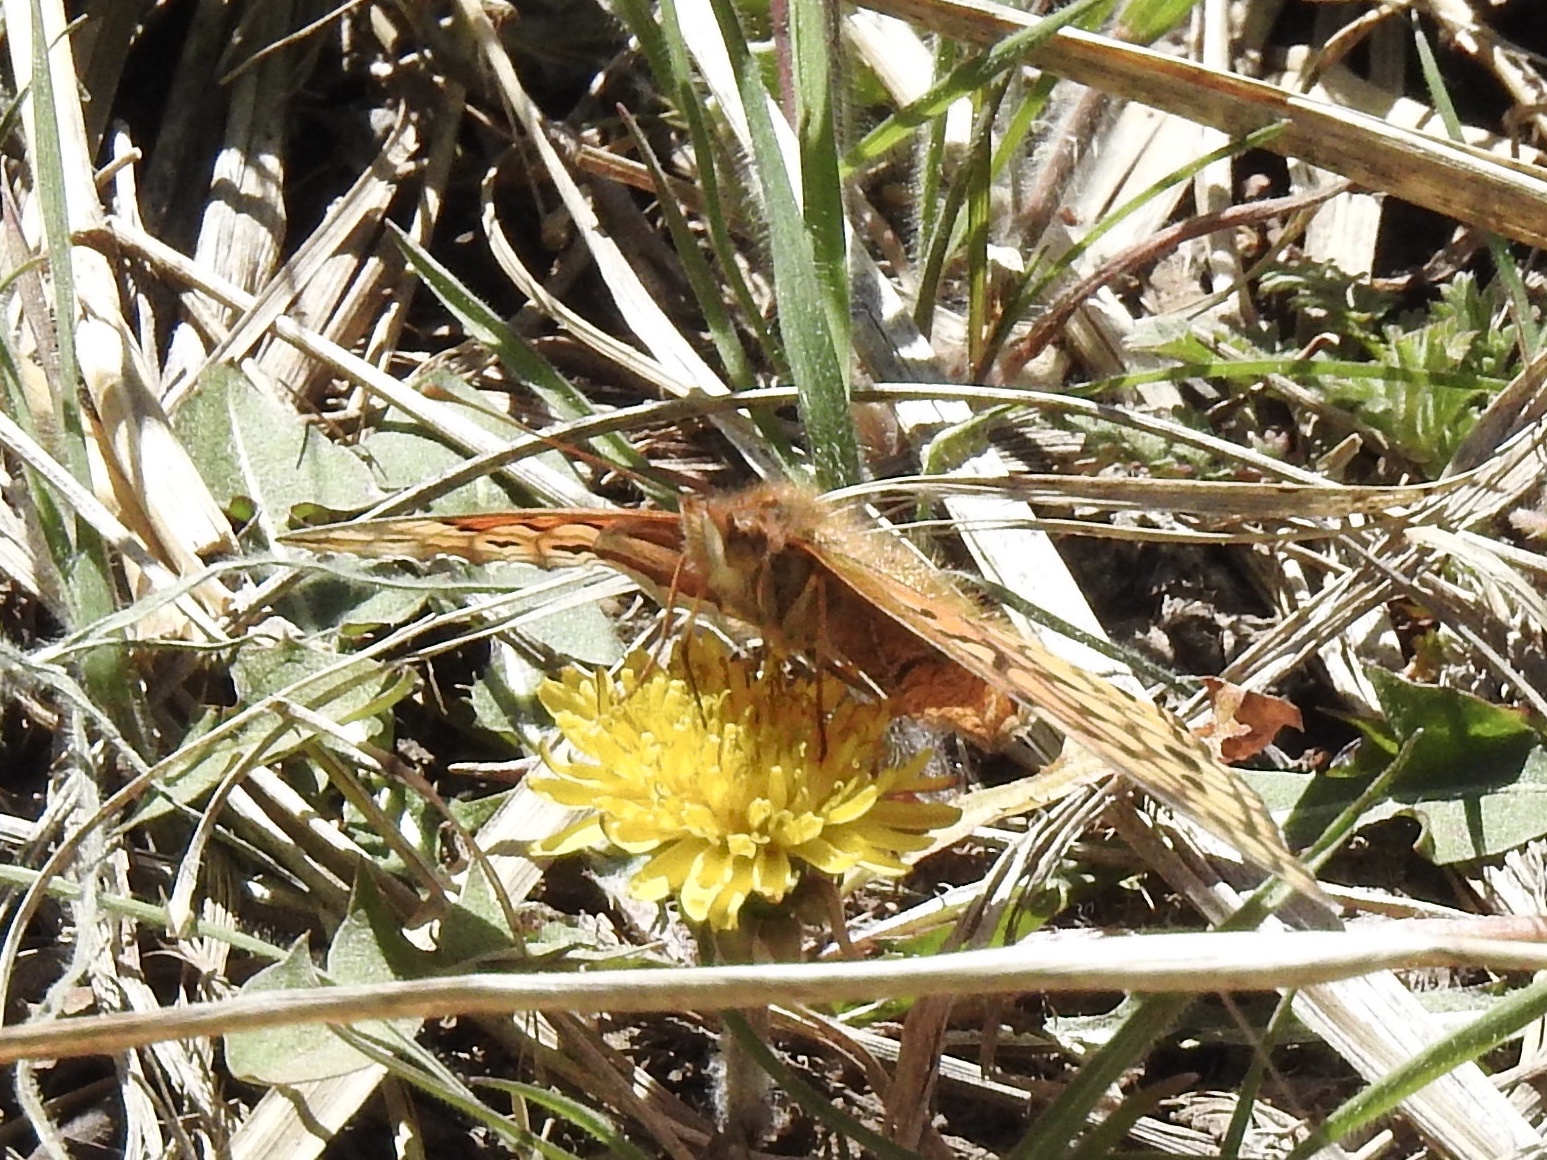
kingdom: Animalia
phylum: Arthropoda
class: Insecta
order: Lepidoptera
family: Nymphalidae
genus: Euptoieta
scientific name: Euptoieta claudia
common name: Variegated fritillary
